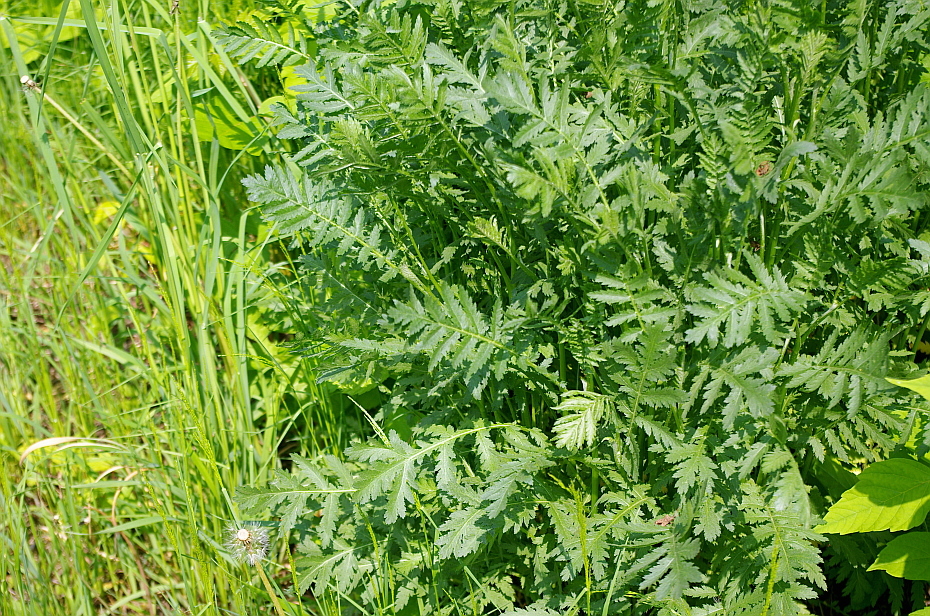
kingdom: Plantae
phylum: Tracheophyta
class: Magnoliopsida
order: Asterales
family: Asteraceae
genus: Tanacetum
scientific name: Tanacetum vulgare
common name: Common tansy
